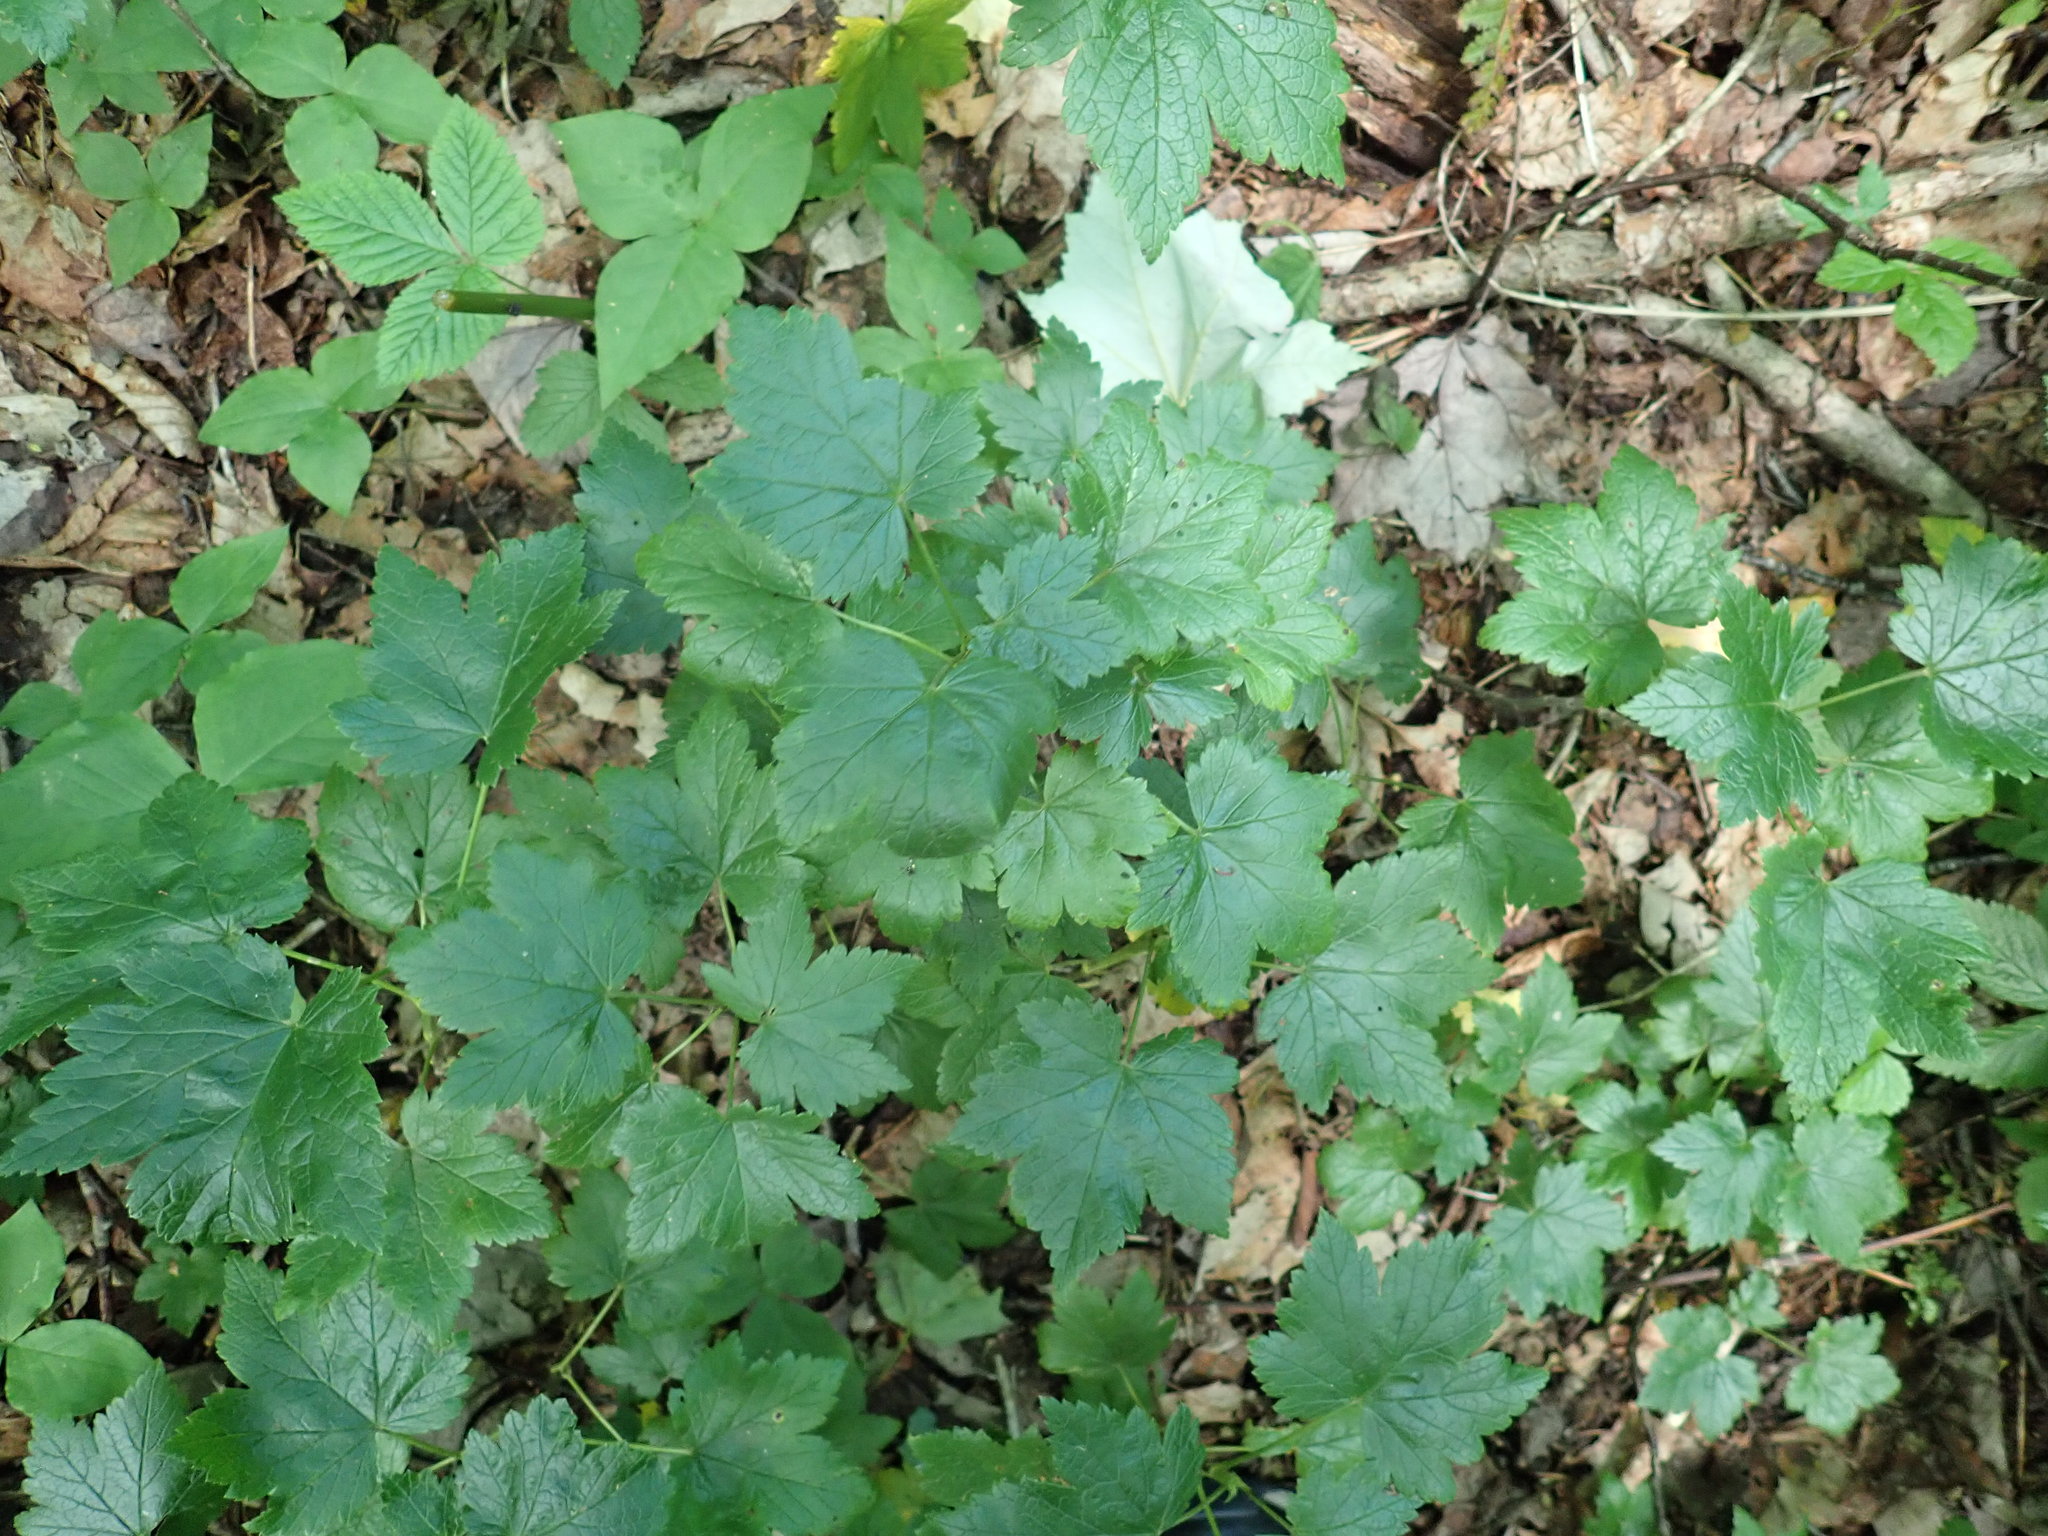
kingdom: Plantae
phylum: Tracheophyta
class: Magnoliopsida
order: Saxifragales
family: Grossulariaceae
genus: Ribes
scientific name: Ribes glandulosum
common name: Skunk currant
